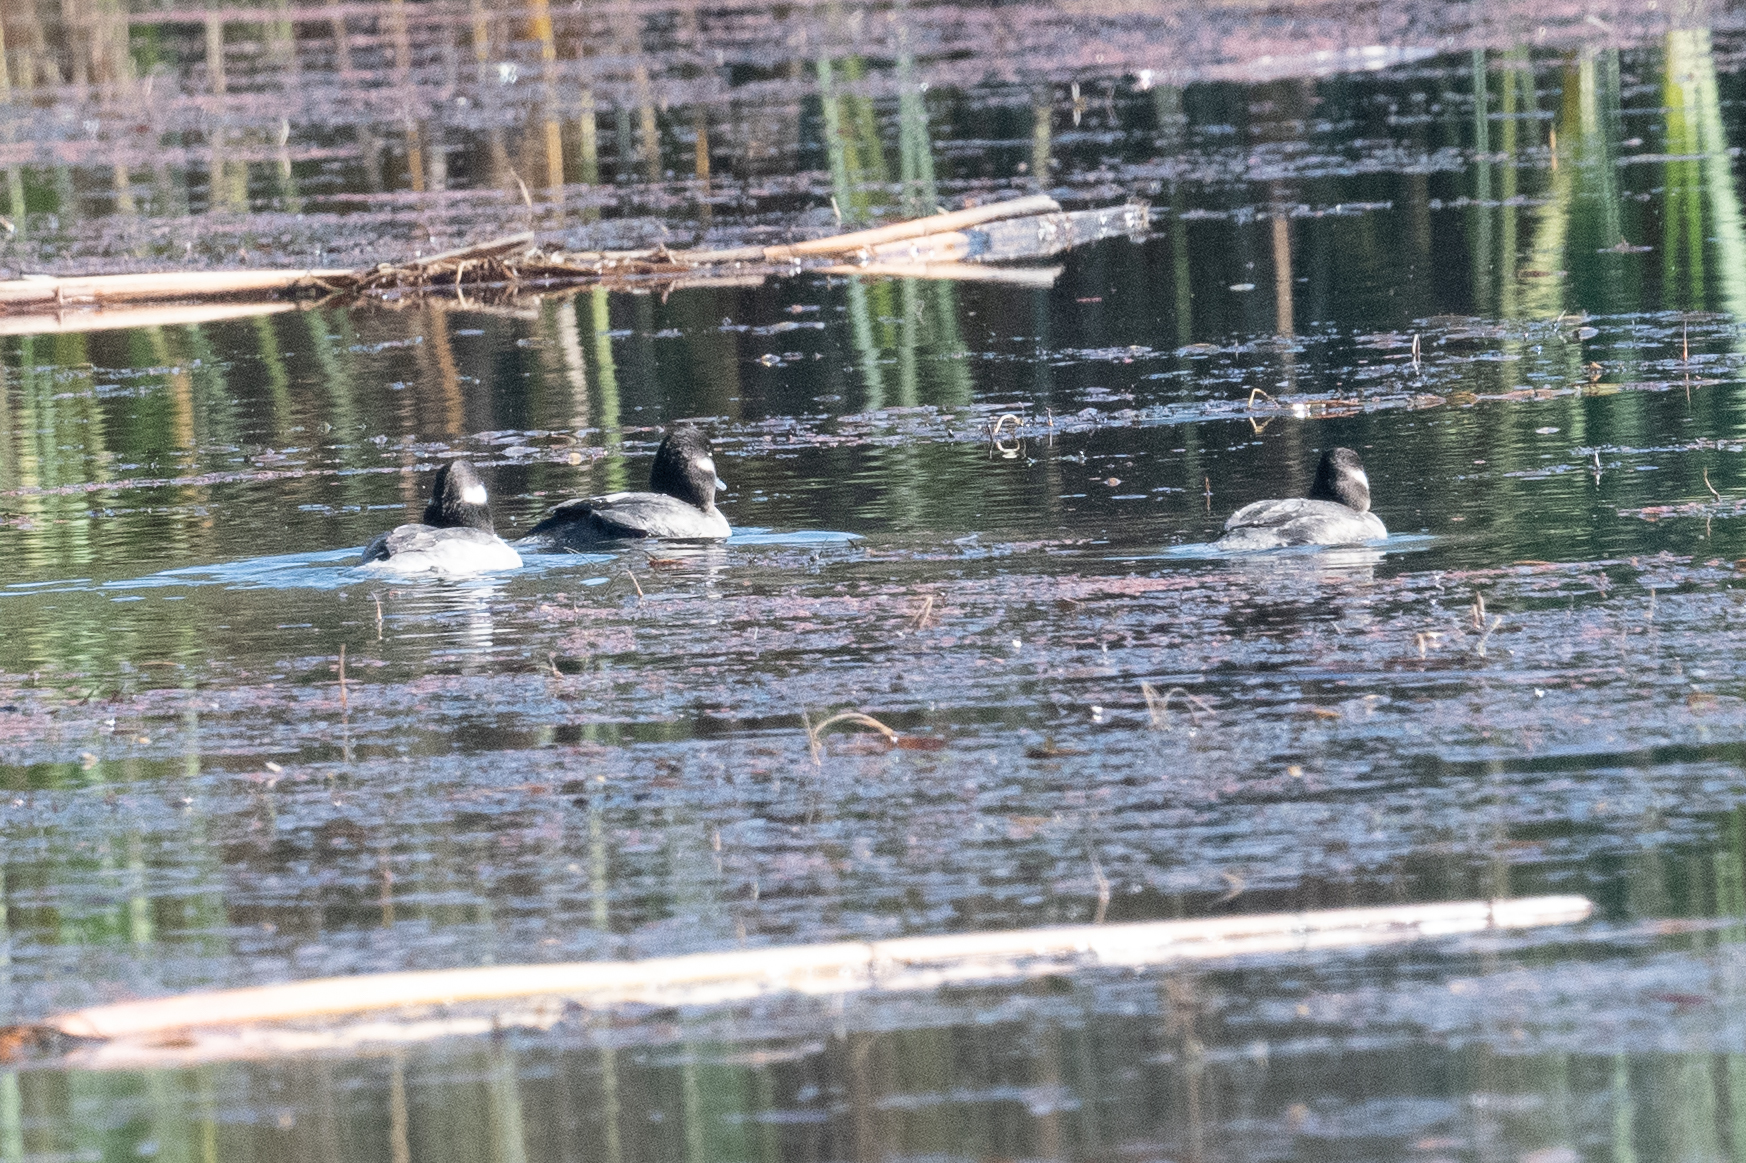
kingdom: Animalia
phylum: Chordata
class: Aves
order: Anseriformes
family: Anatidae
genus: Bucephala
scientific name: Bucephala albeola
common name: Bufflehead
